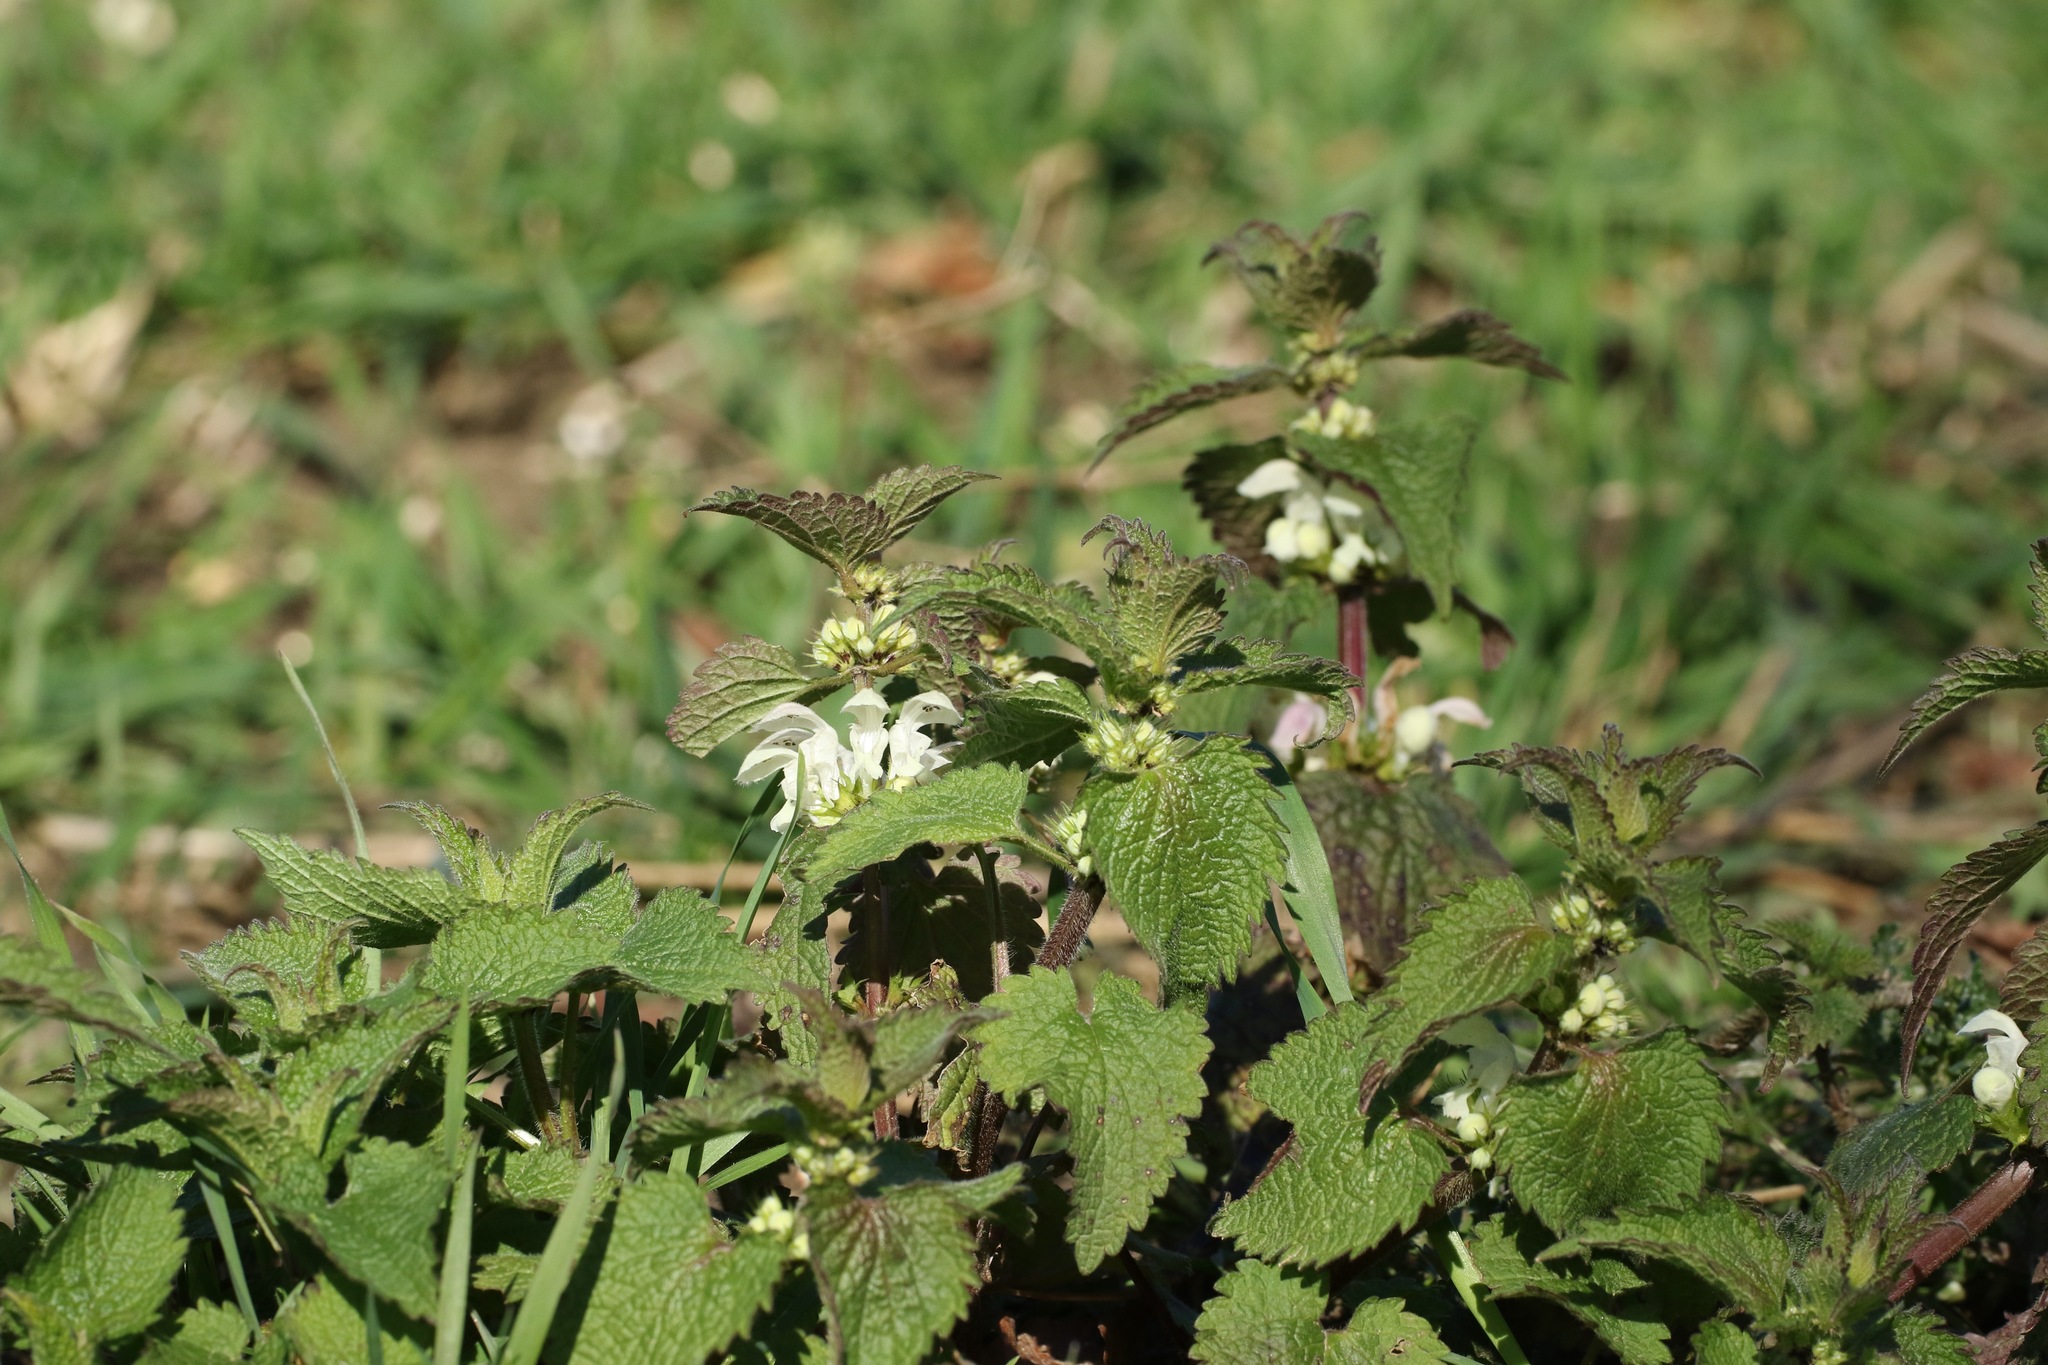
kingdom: Plantae
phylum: Tracheophyta
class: Magnoliopsida
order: Lamiales
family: Lamiaceae
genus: Lamium
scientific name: Lamium album
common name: White dead-nettle
